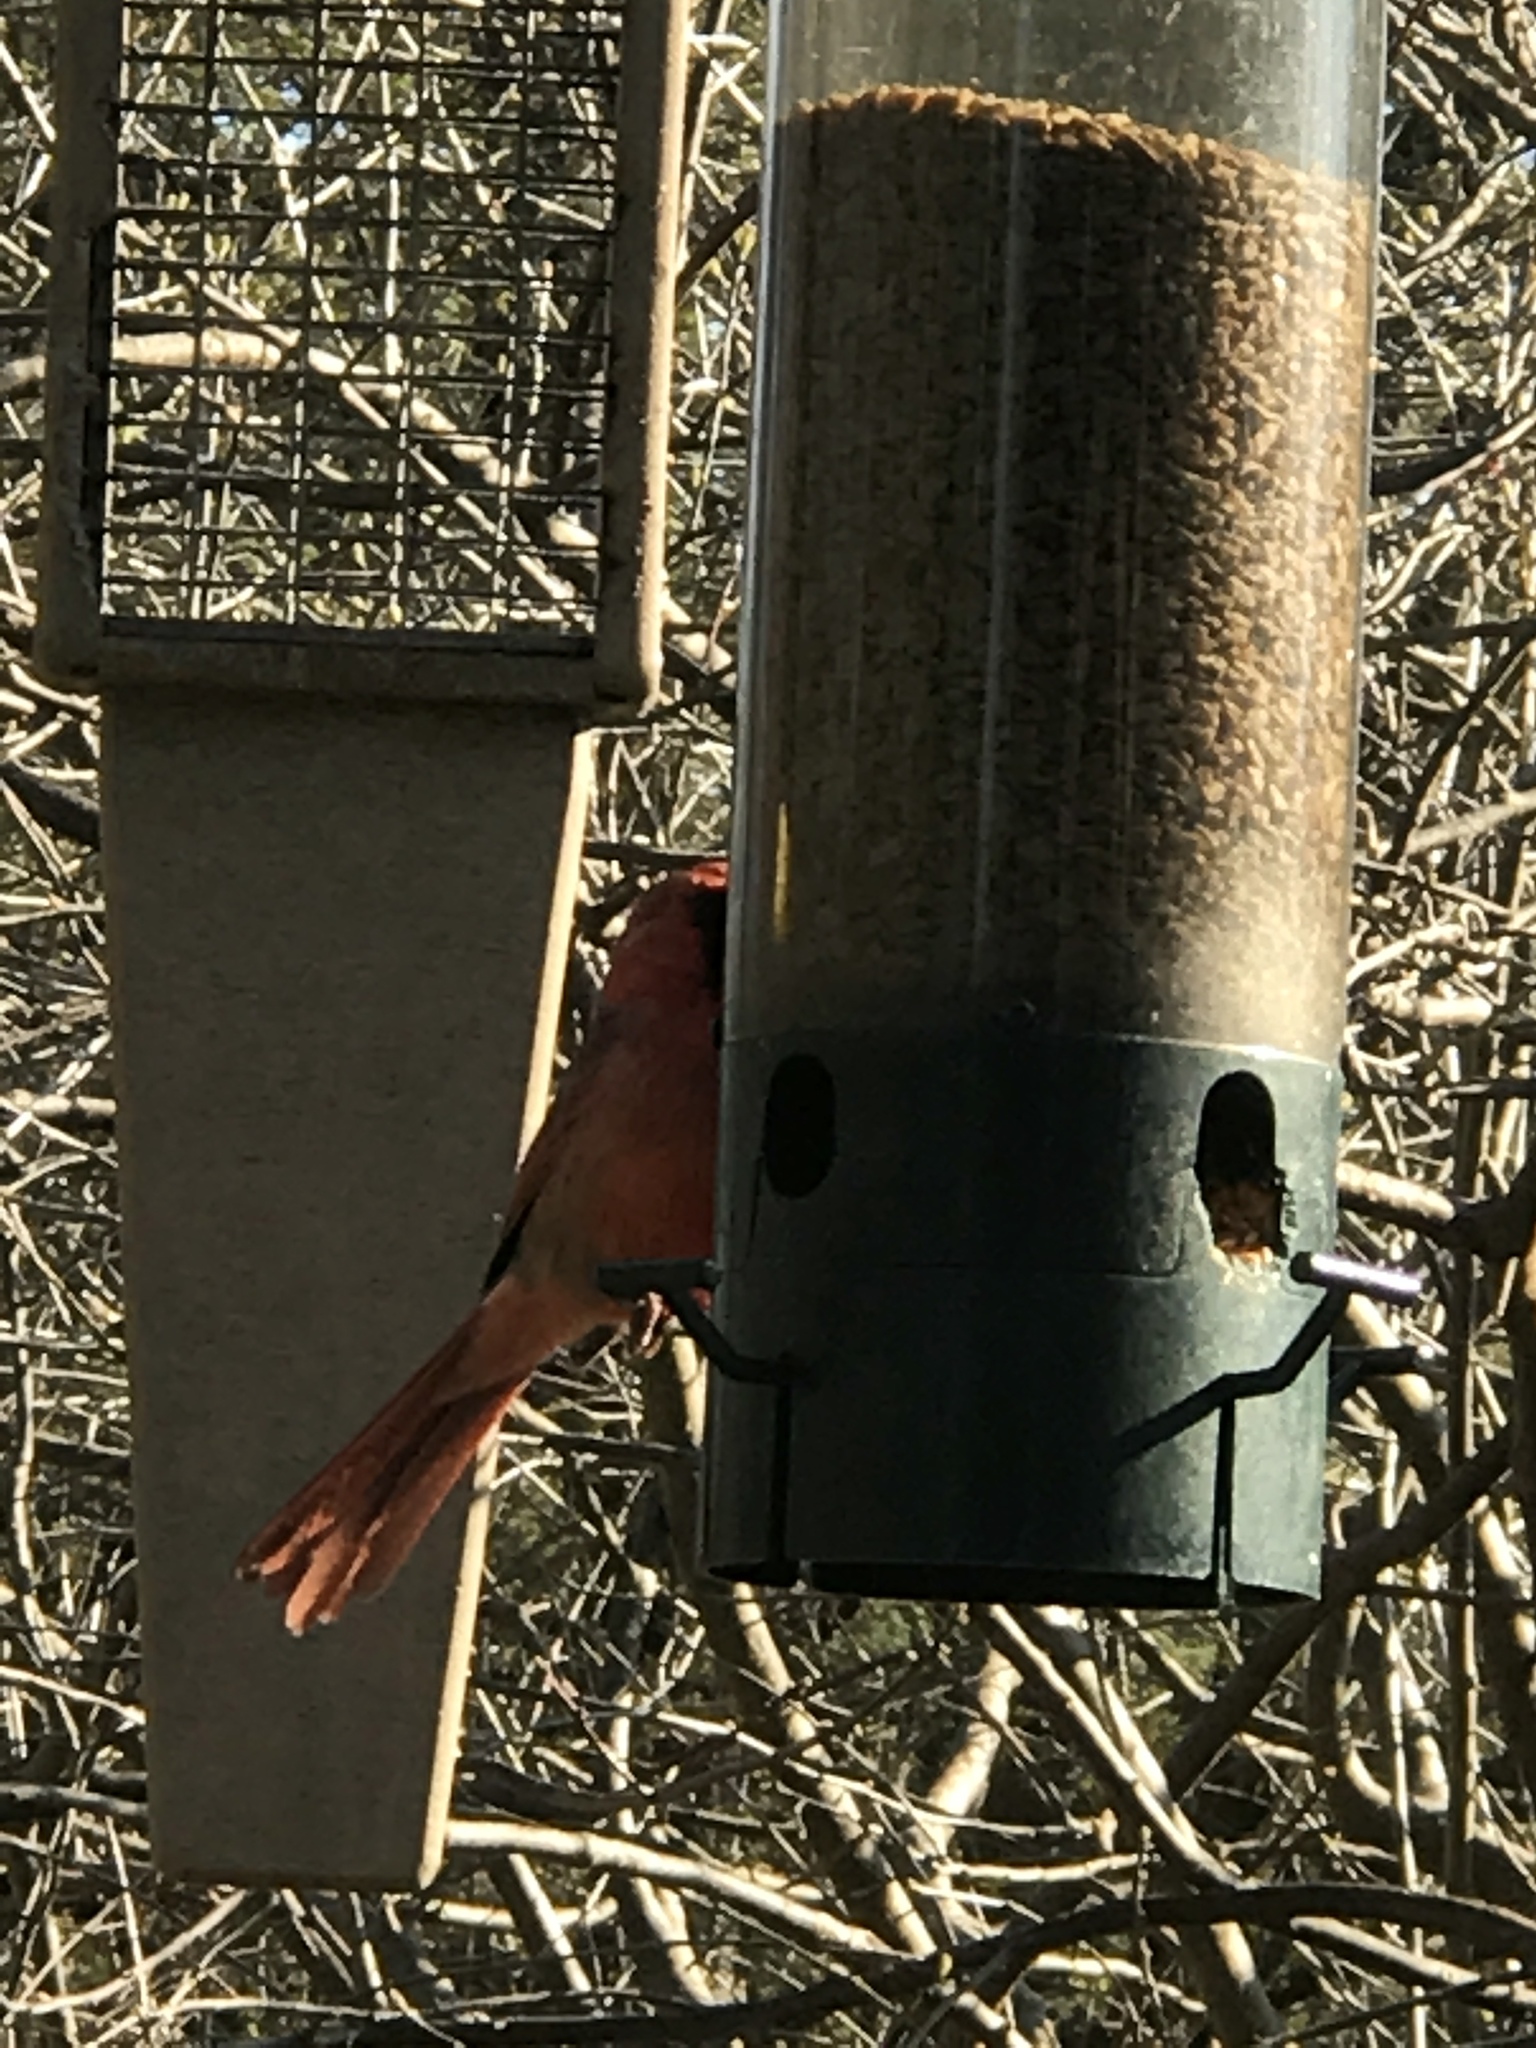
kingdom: Animalia
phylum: Chordata
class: Aves
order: Passeriformes
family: Cardinalidae
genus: Cardinalis
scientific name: Cardinalis cardinalis
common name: Northern cardinal
